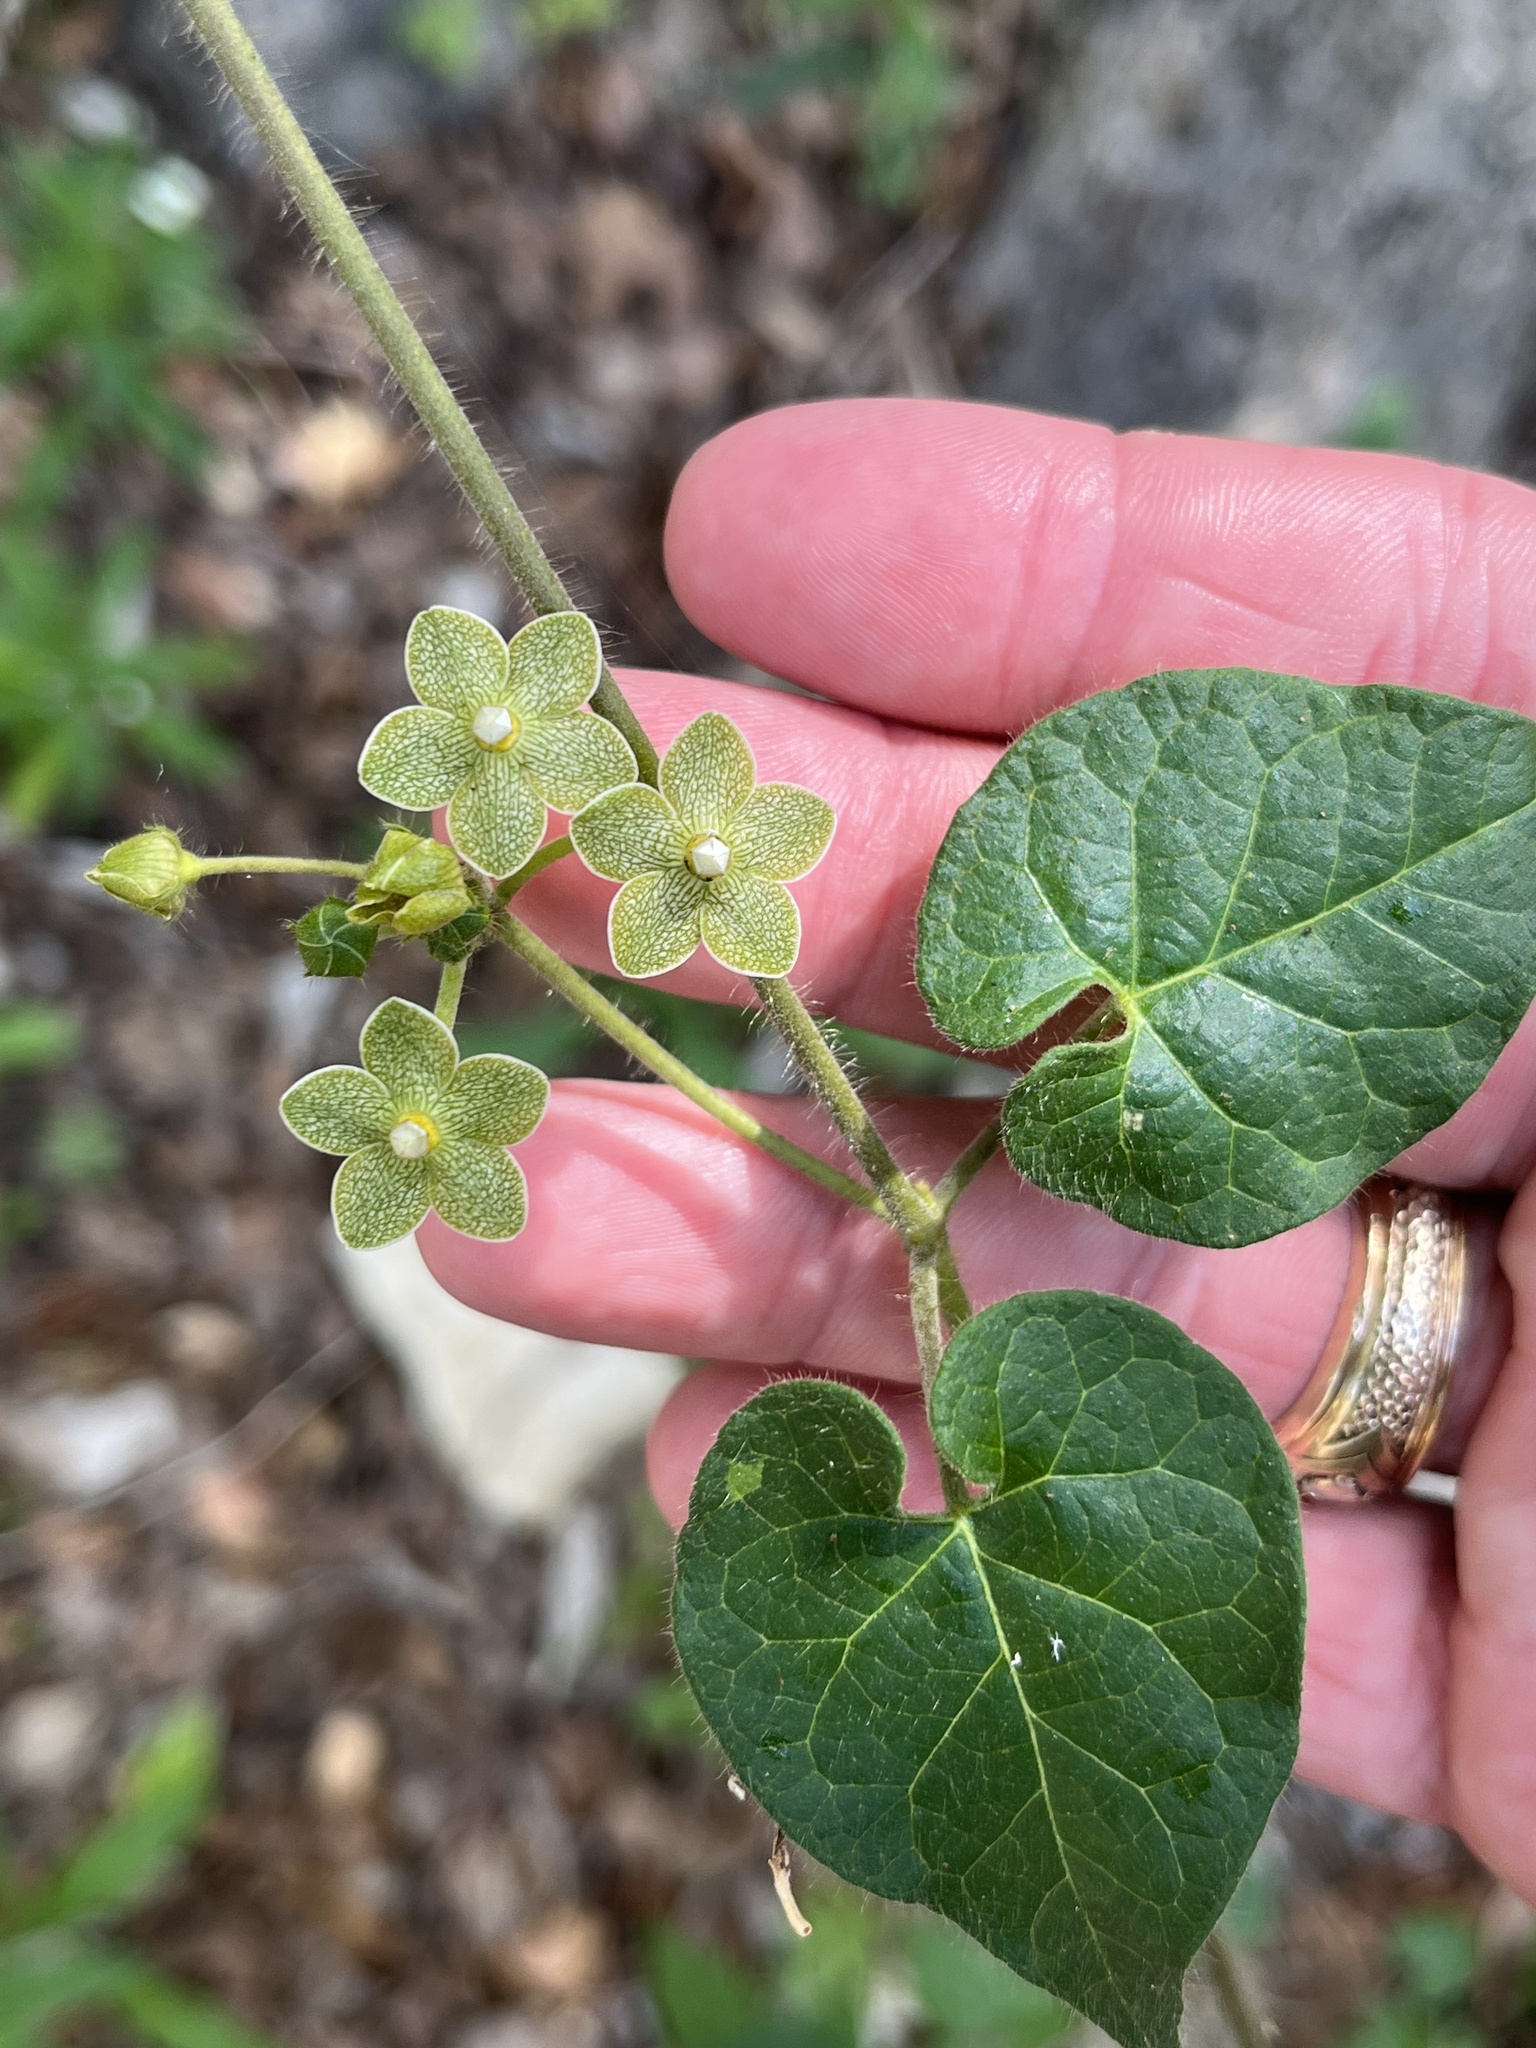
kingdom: Plantae
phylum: Tracheophyta
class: Magnoliopsida
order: Gentianales
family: Apocynaceae
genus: Dictyanthus
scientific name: Dictyanthus reticulatus
